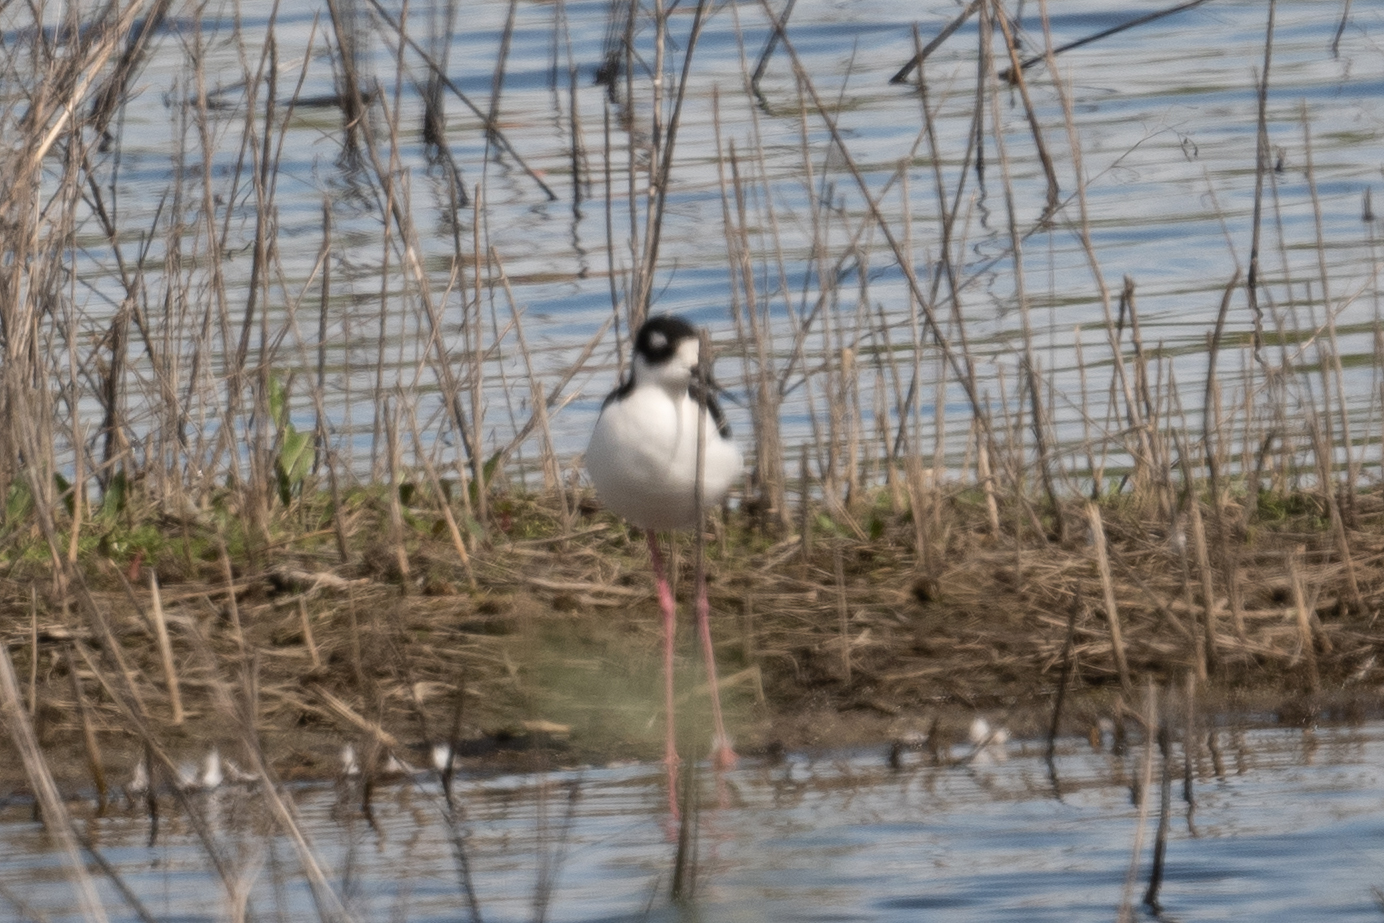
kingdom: Animalia
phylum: Chordata
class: Aves
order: Charadriiformes
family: Recurvirostridae
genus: Himantopus
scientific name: Himantopus mexicanus
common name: Black-necked stilt
